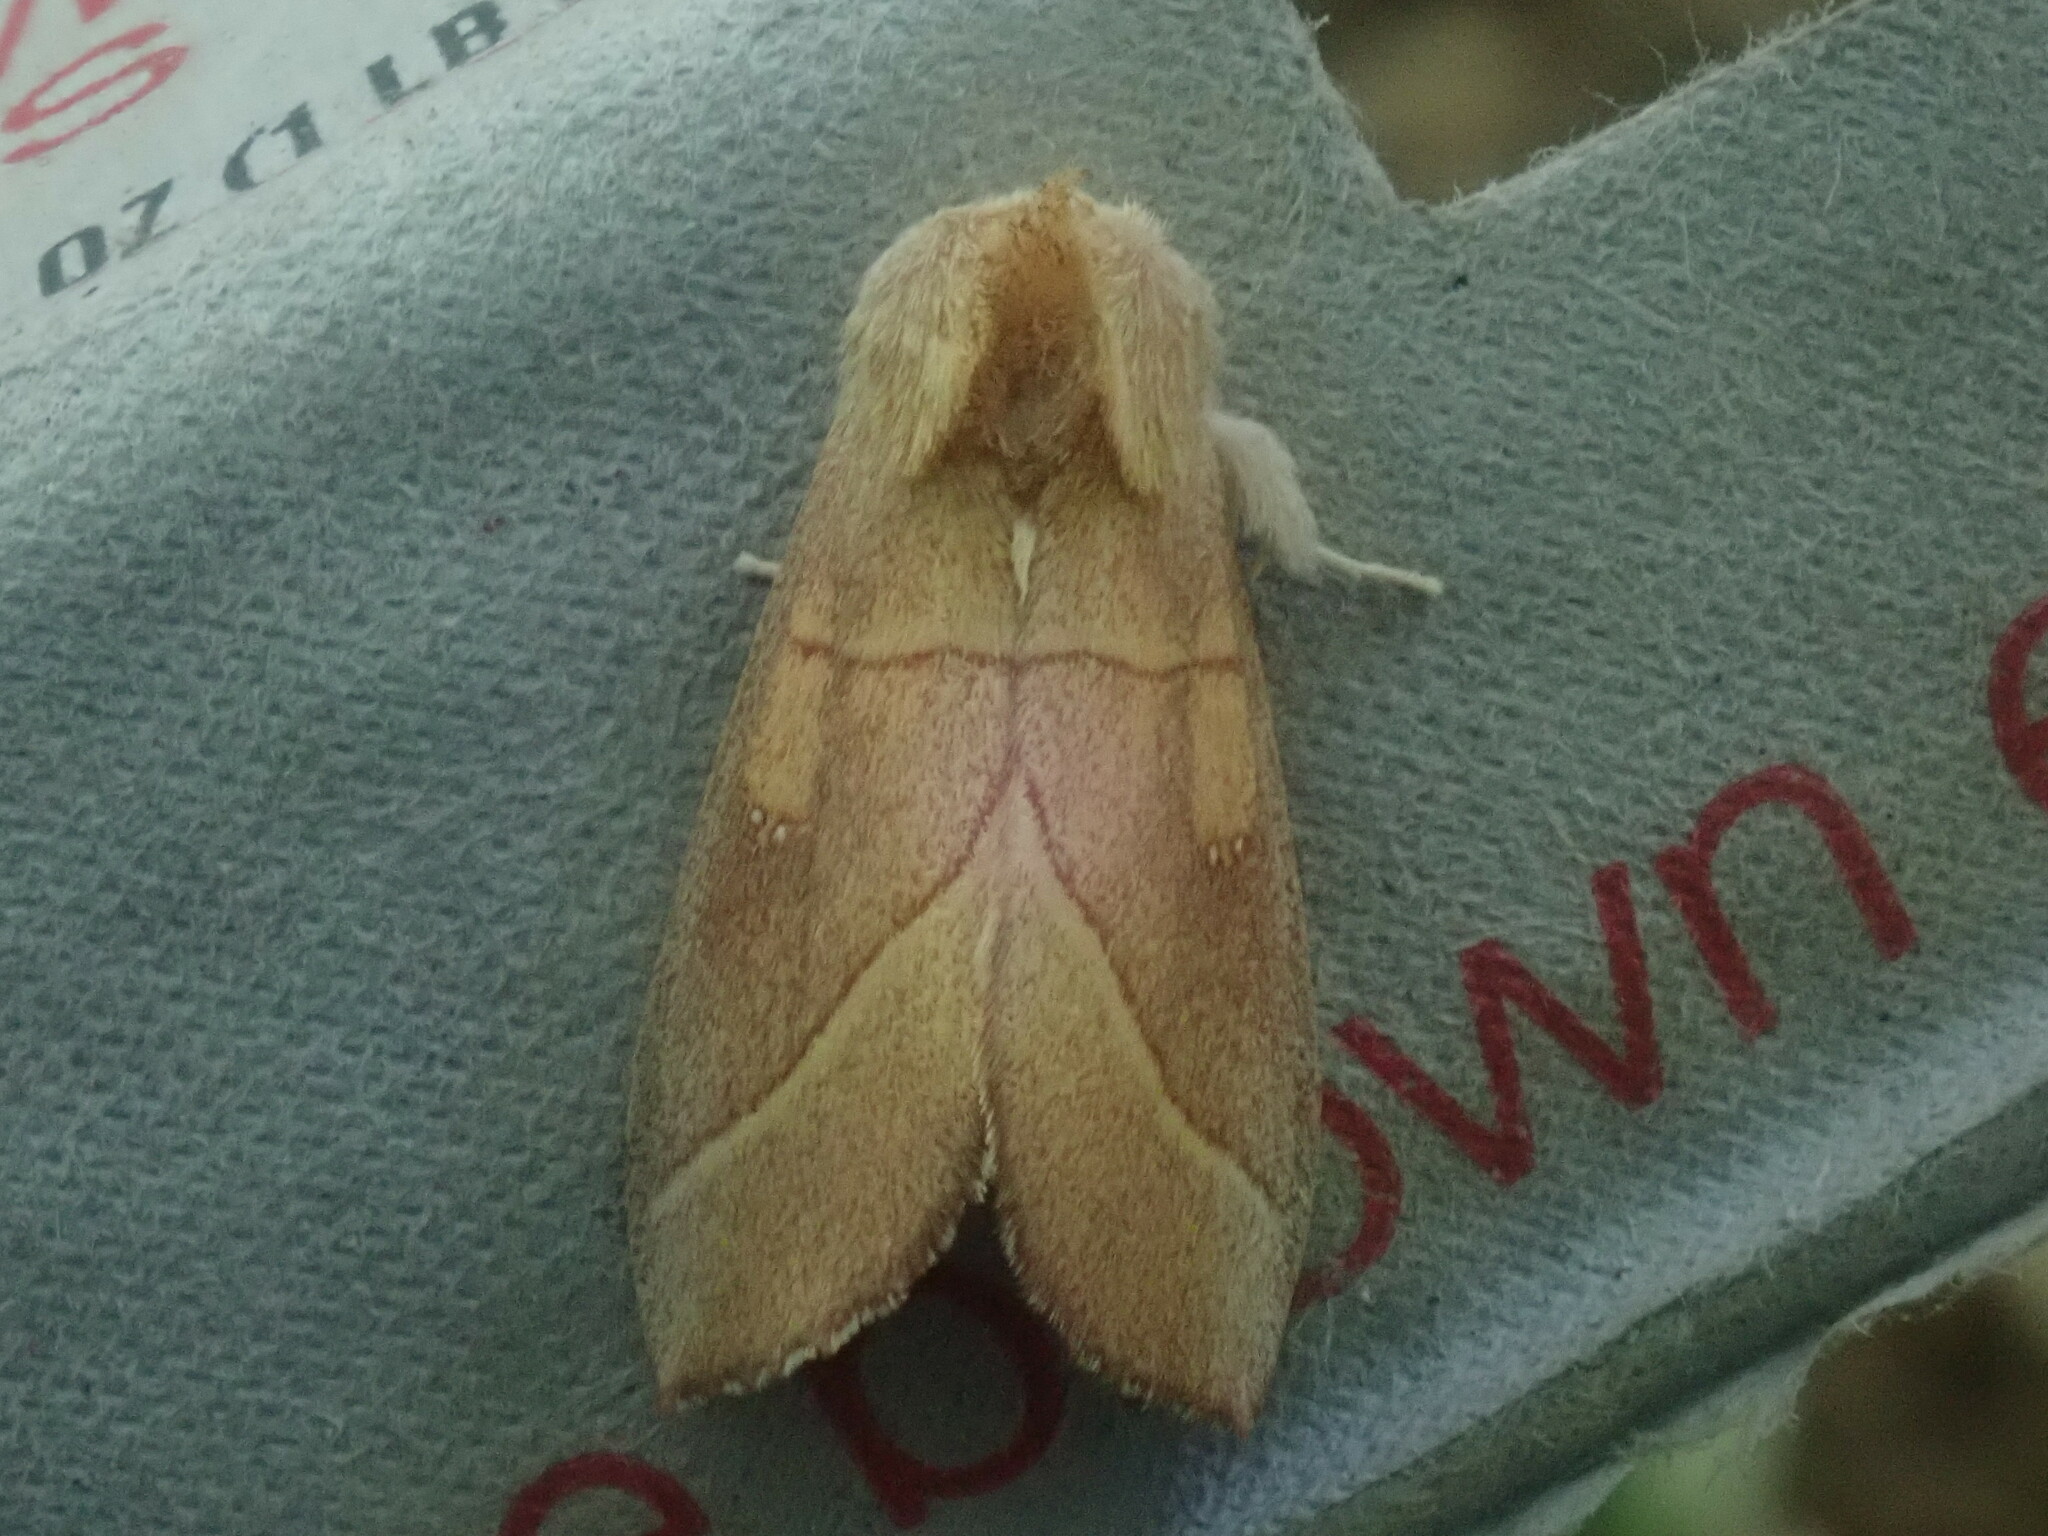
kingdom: Animalia
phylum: Arthropoda
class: Insecta
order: Lepidoptera
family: Notodontidae
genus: Nadata
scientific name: Nadata gibbosa
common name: White-dotted prominent
